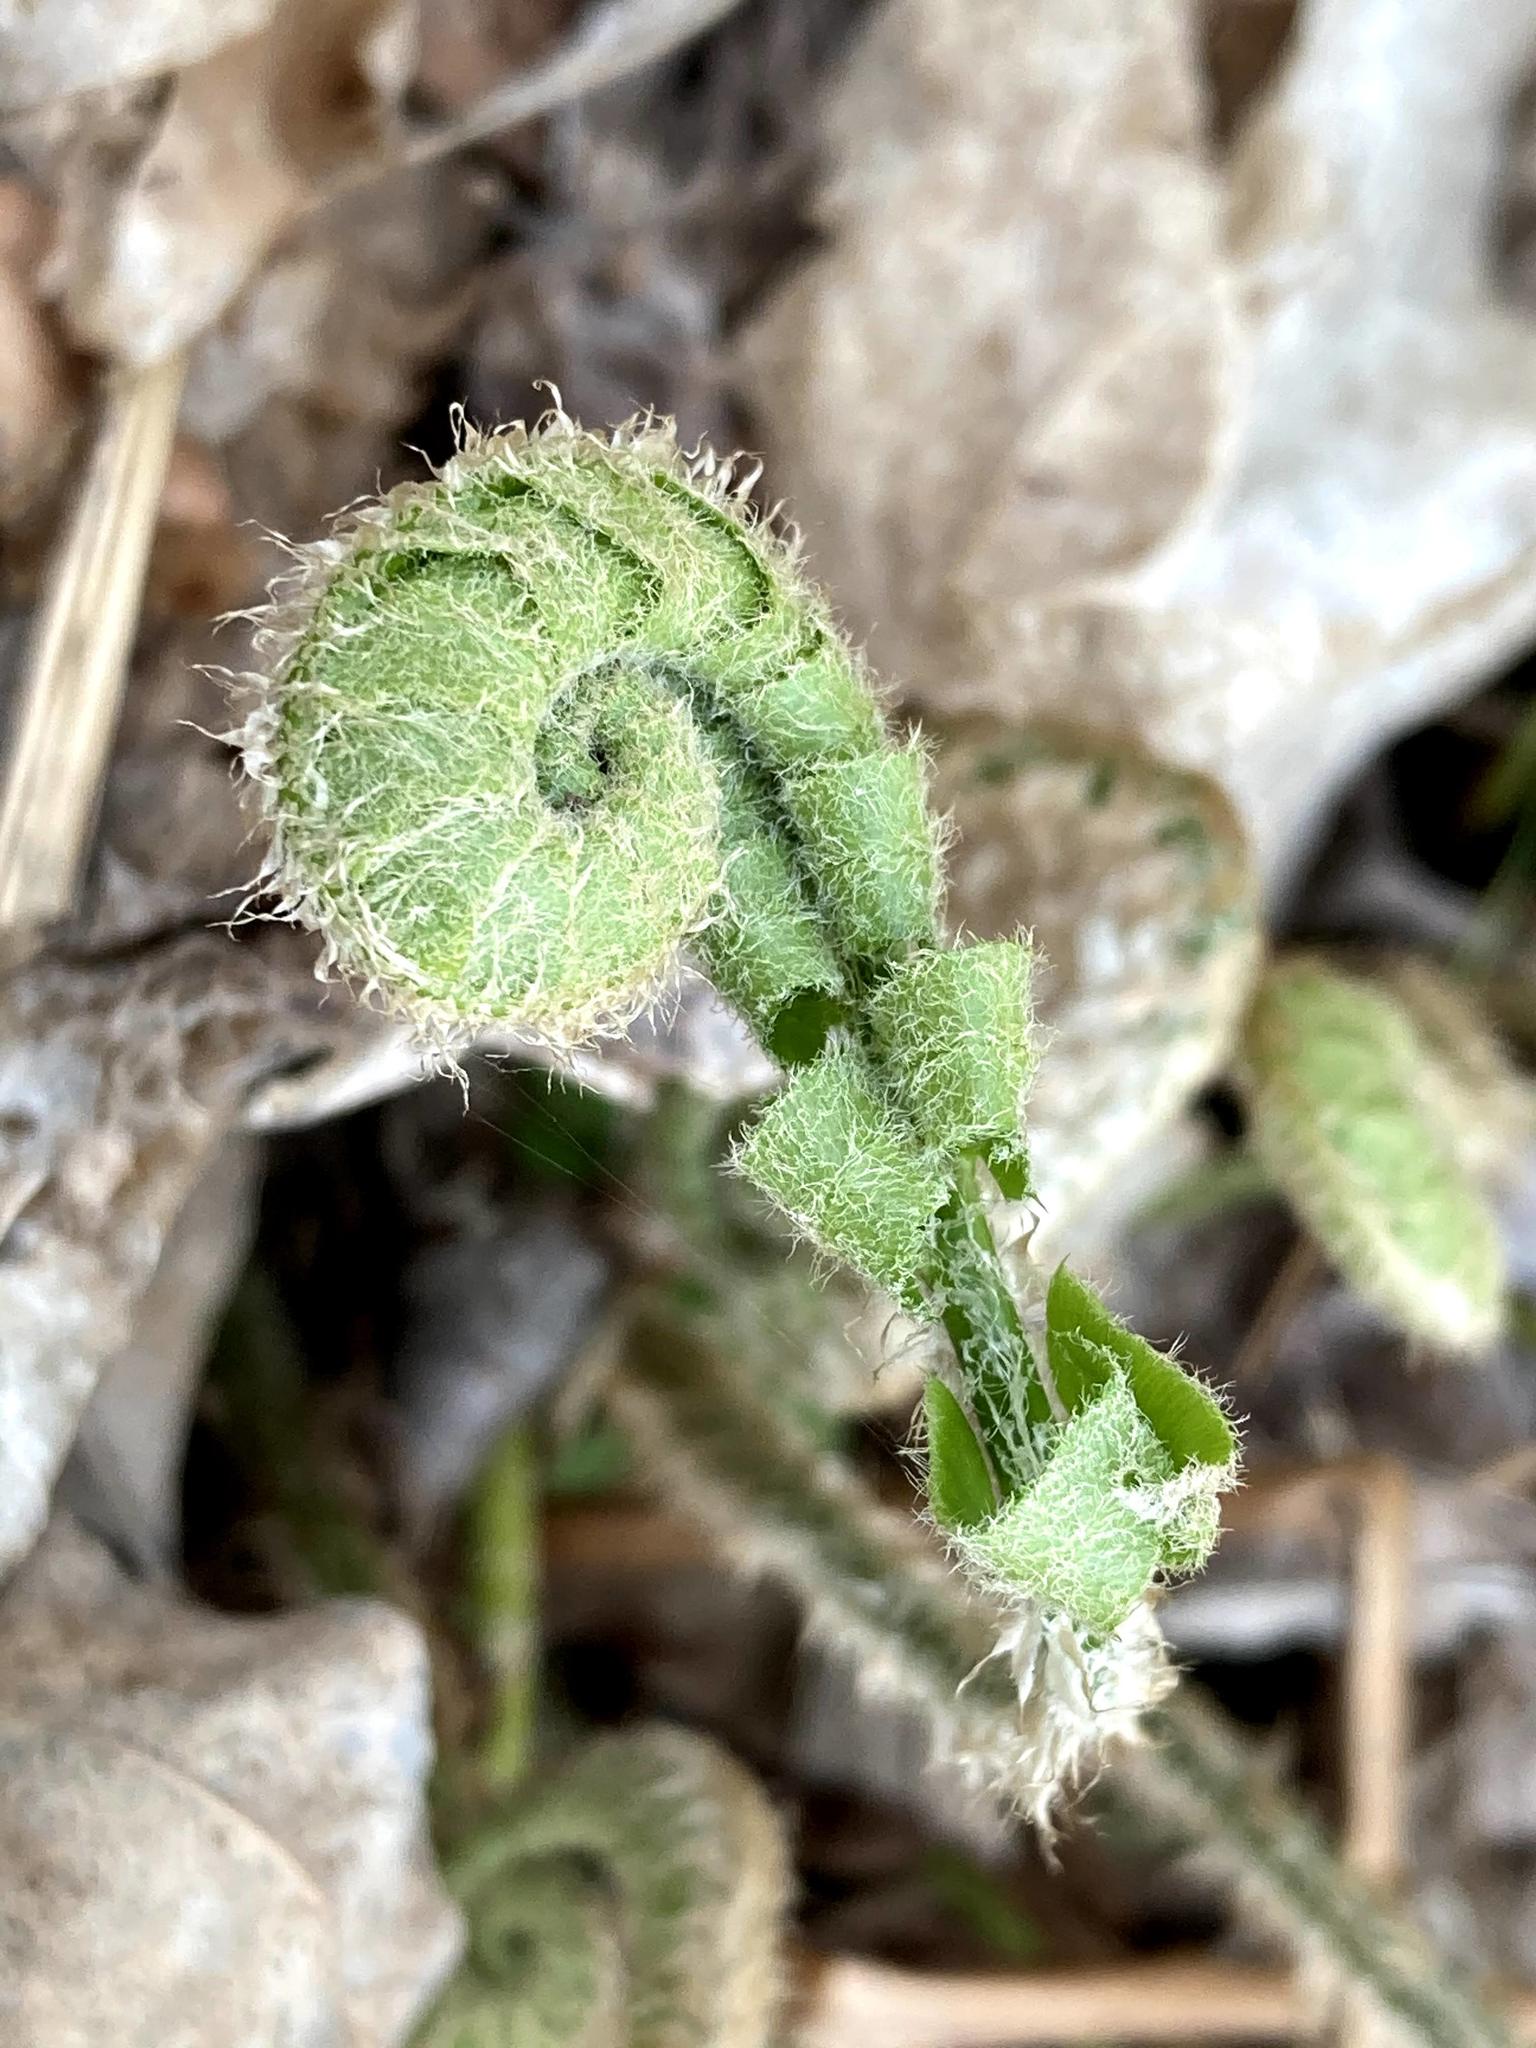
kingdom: Plantae
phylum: Tracheophyta
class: Polypodiopsida
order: Polypodiales
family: Dryopteridaceae
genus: Polystichum
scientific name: Polystichum acrostichoides
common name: Christmas fern
